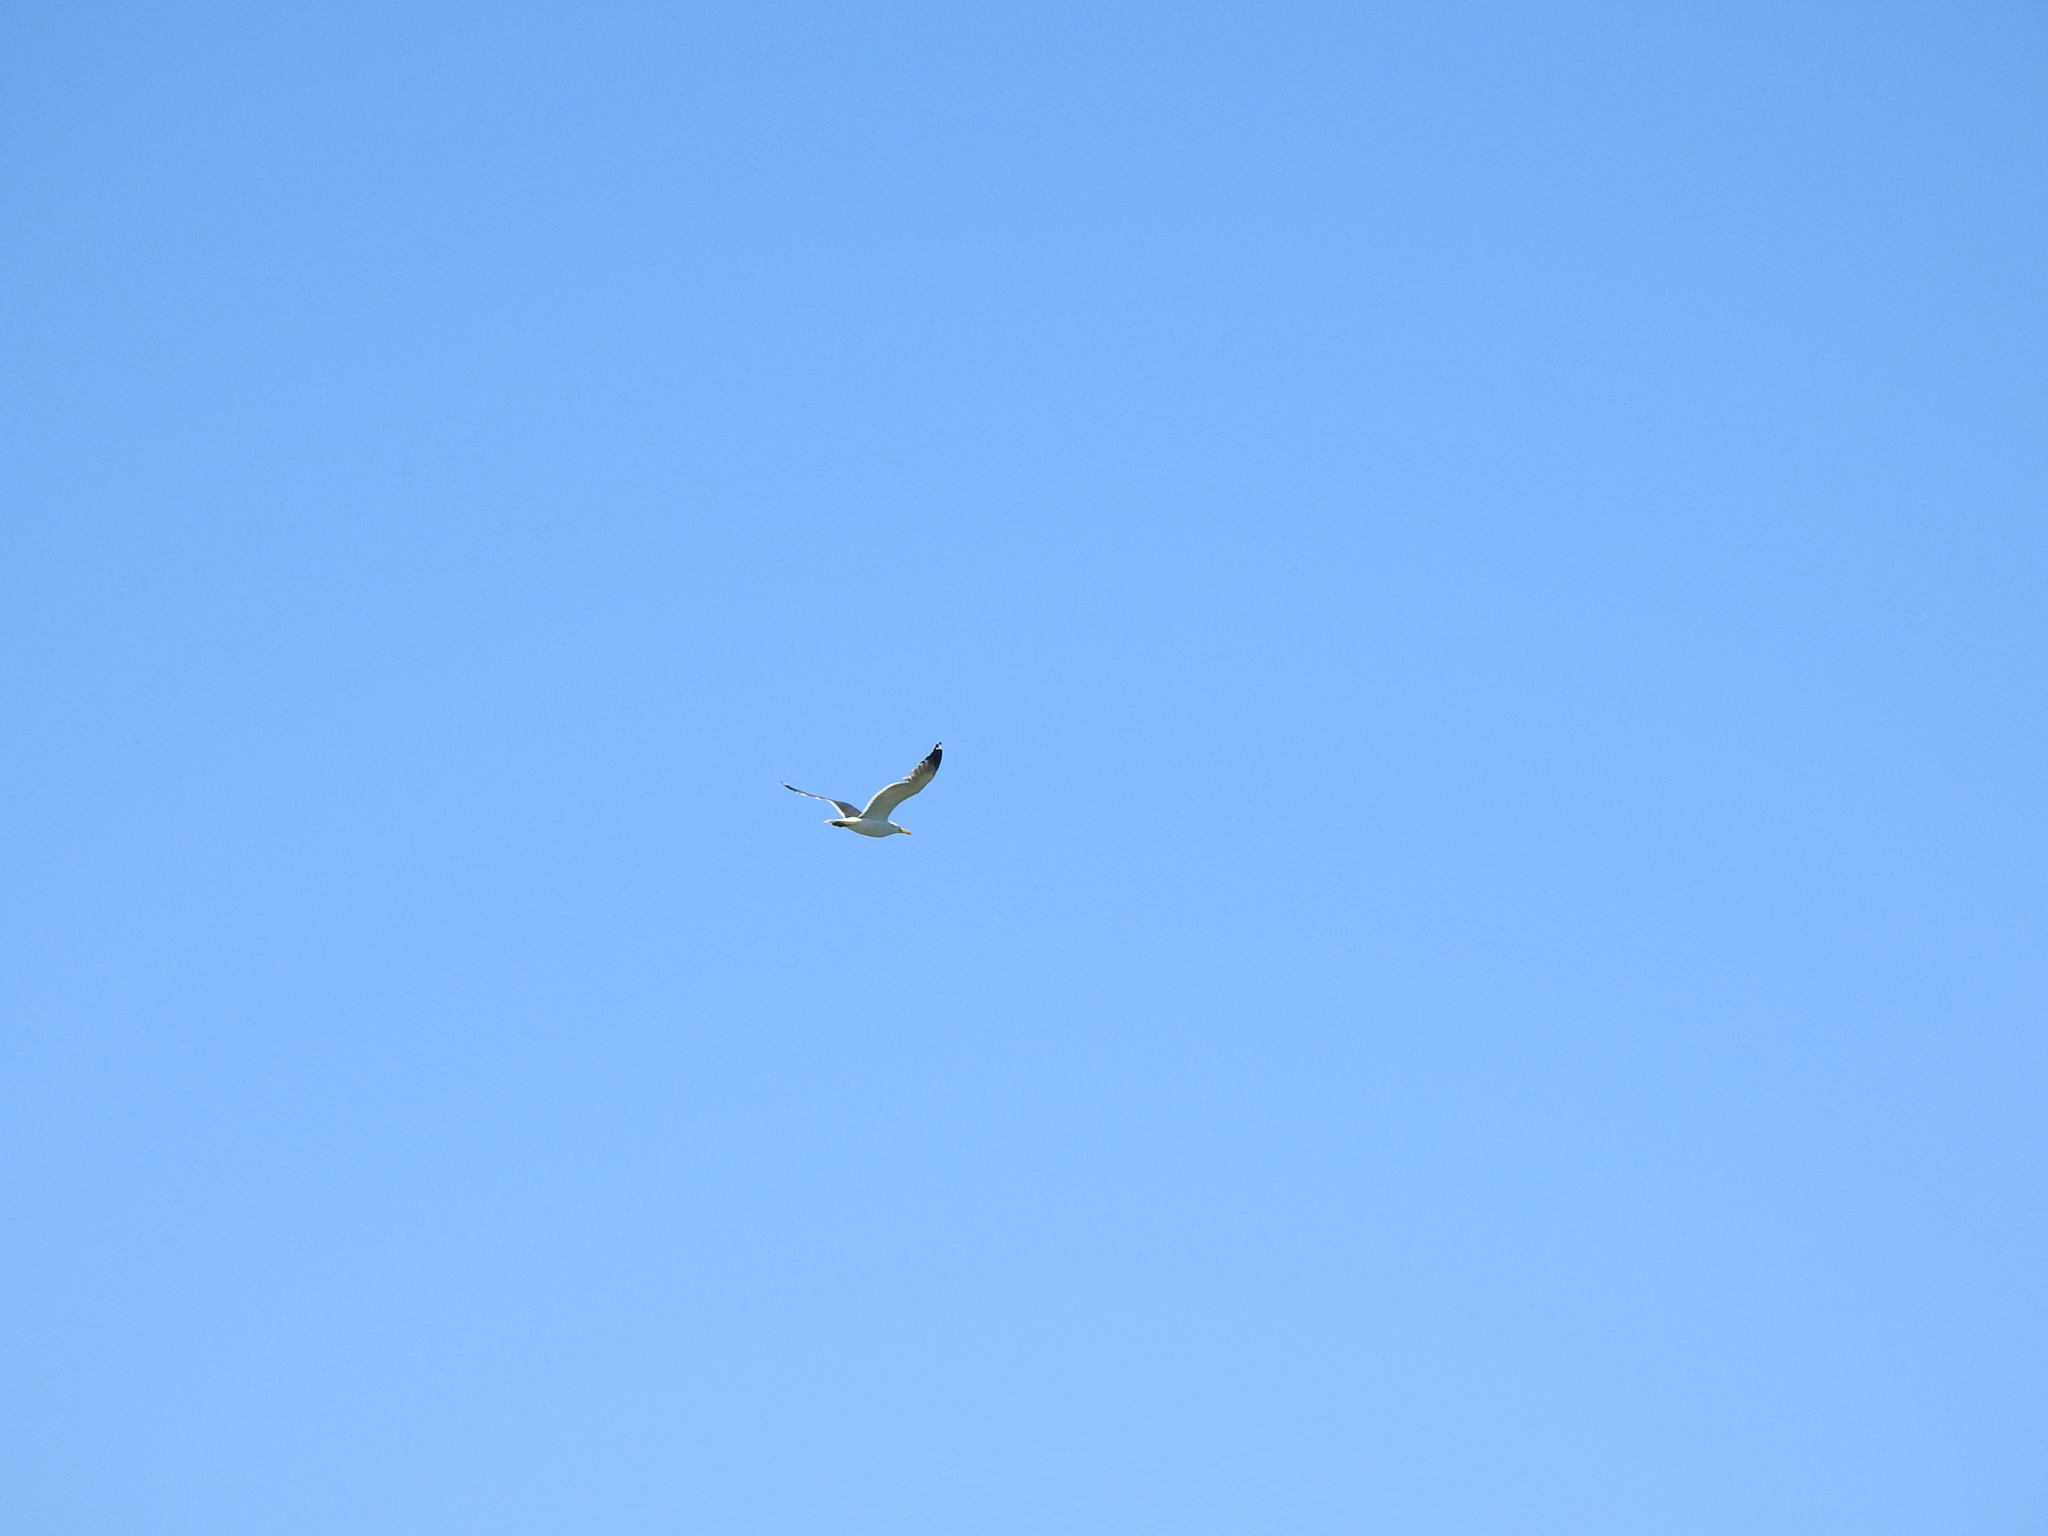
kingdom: Animalia
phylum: Chordata
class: Aves
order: Charadriiformes
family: Laridae
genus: Larus
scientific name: Larus fuscus
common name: Lesser black-backed gull
